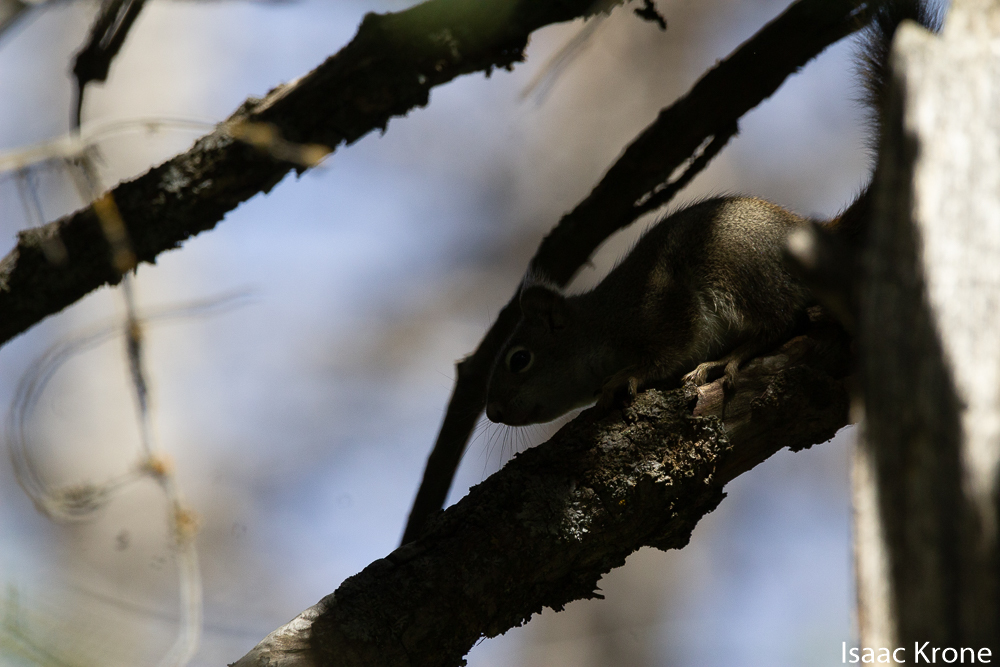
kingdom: Animalia
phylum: Chordata
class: Mammalia
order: Rodentia
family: Sciuridae
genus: Tamiasciurus
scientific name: Tamiasciurus hudsonicus
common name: Red squirrel
